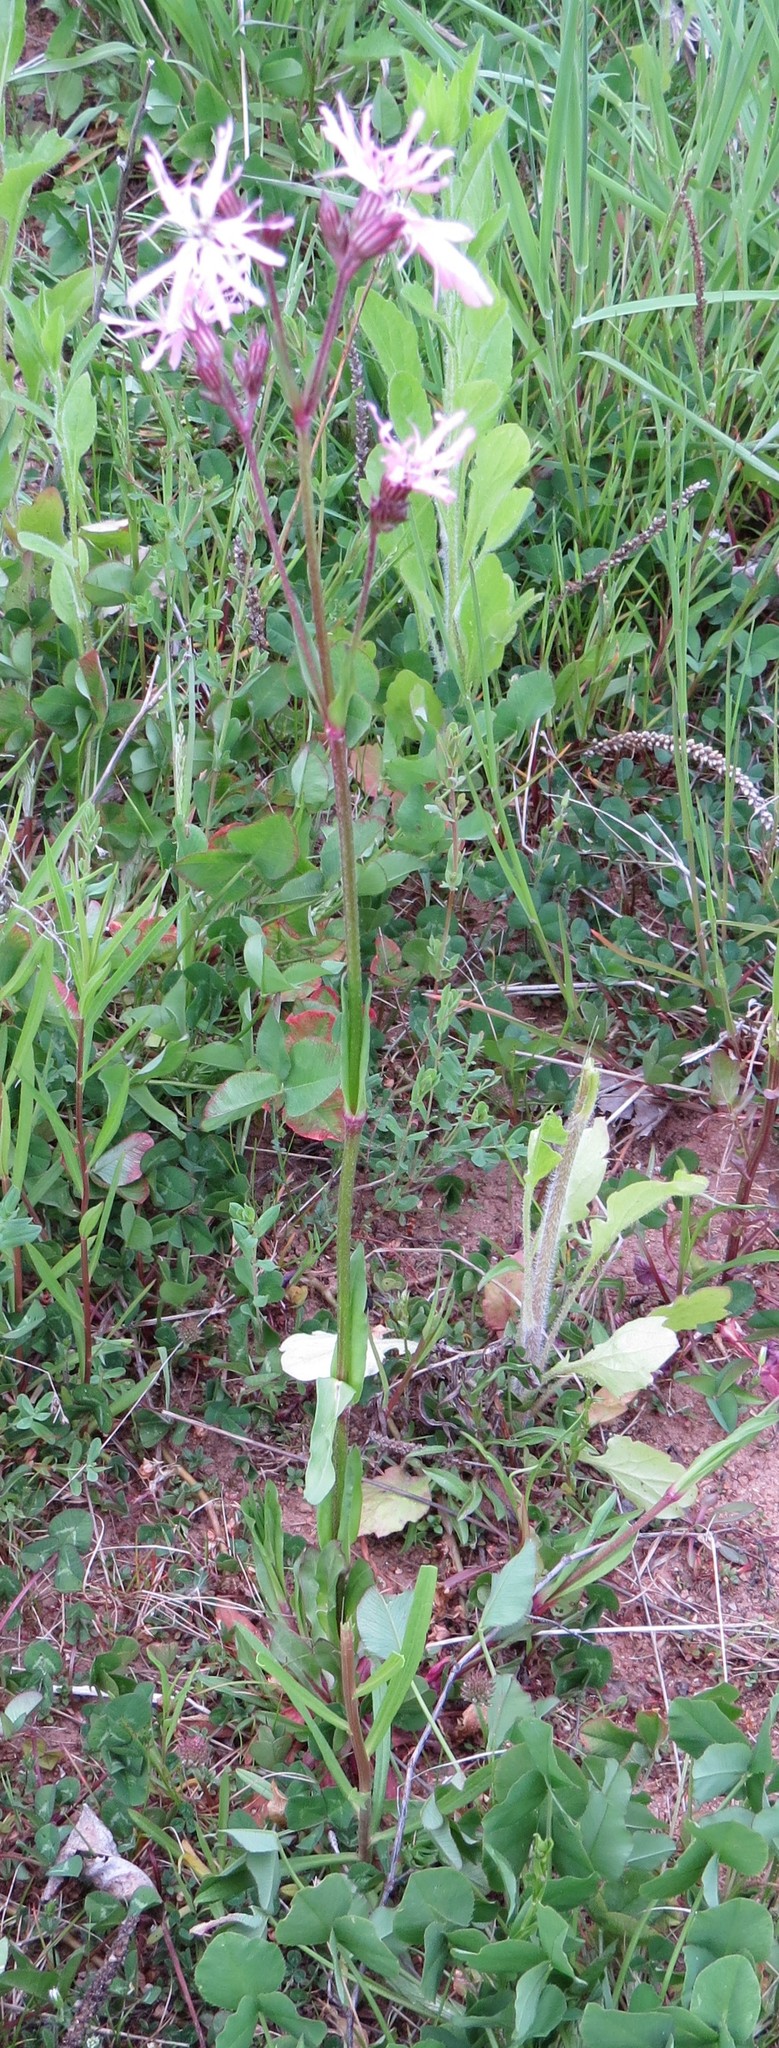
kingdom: Plantae
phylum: Tracheophyta
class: Magnoliopsida
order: Caryophyllales
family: Caryophyllaceae
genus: Silene
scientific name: Silene flos-cuculi
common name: Ragged-robin
